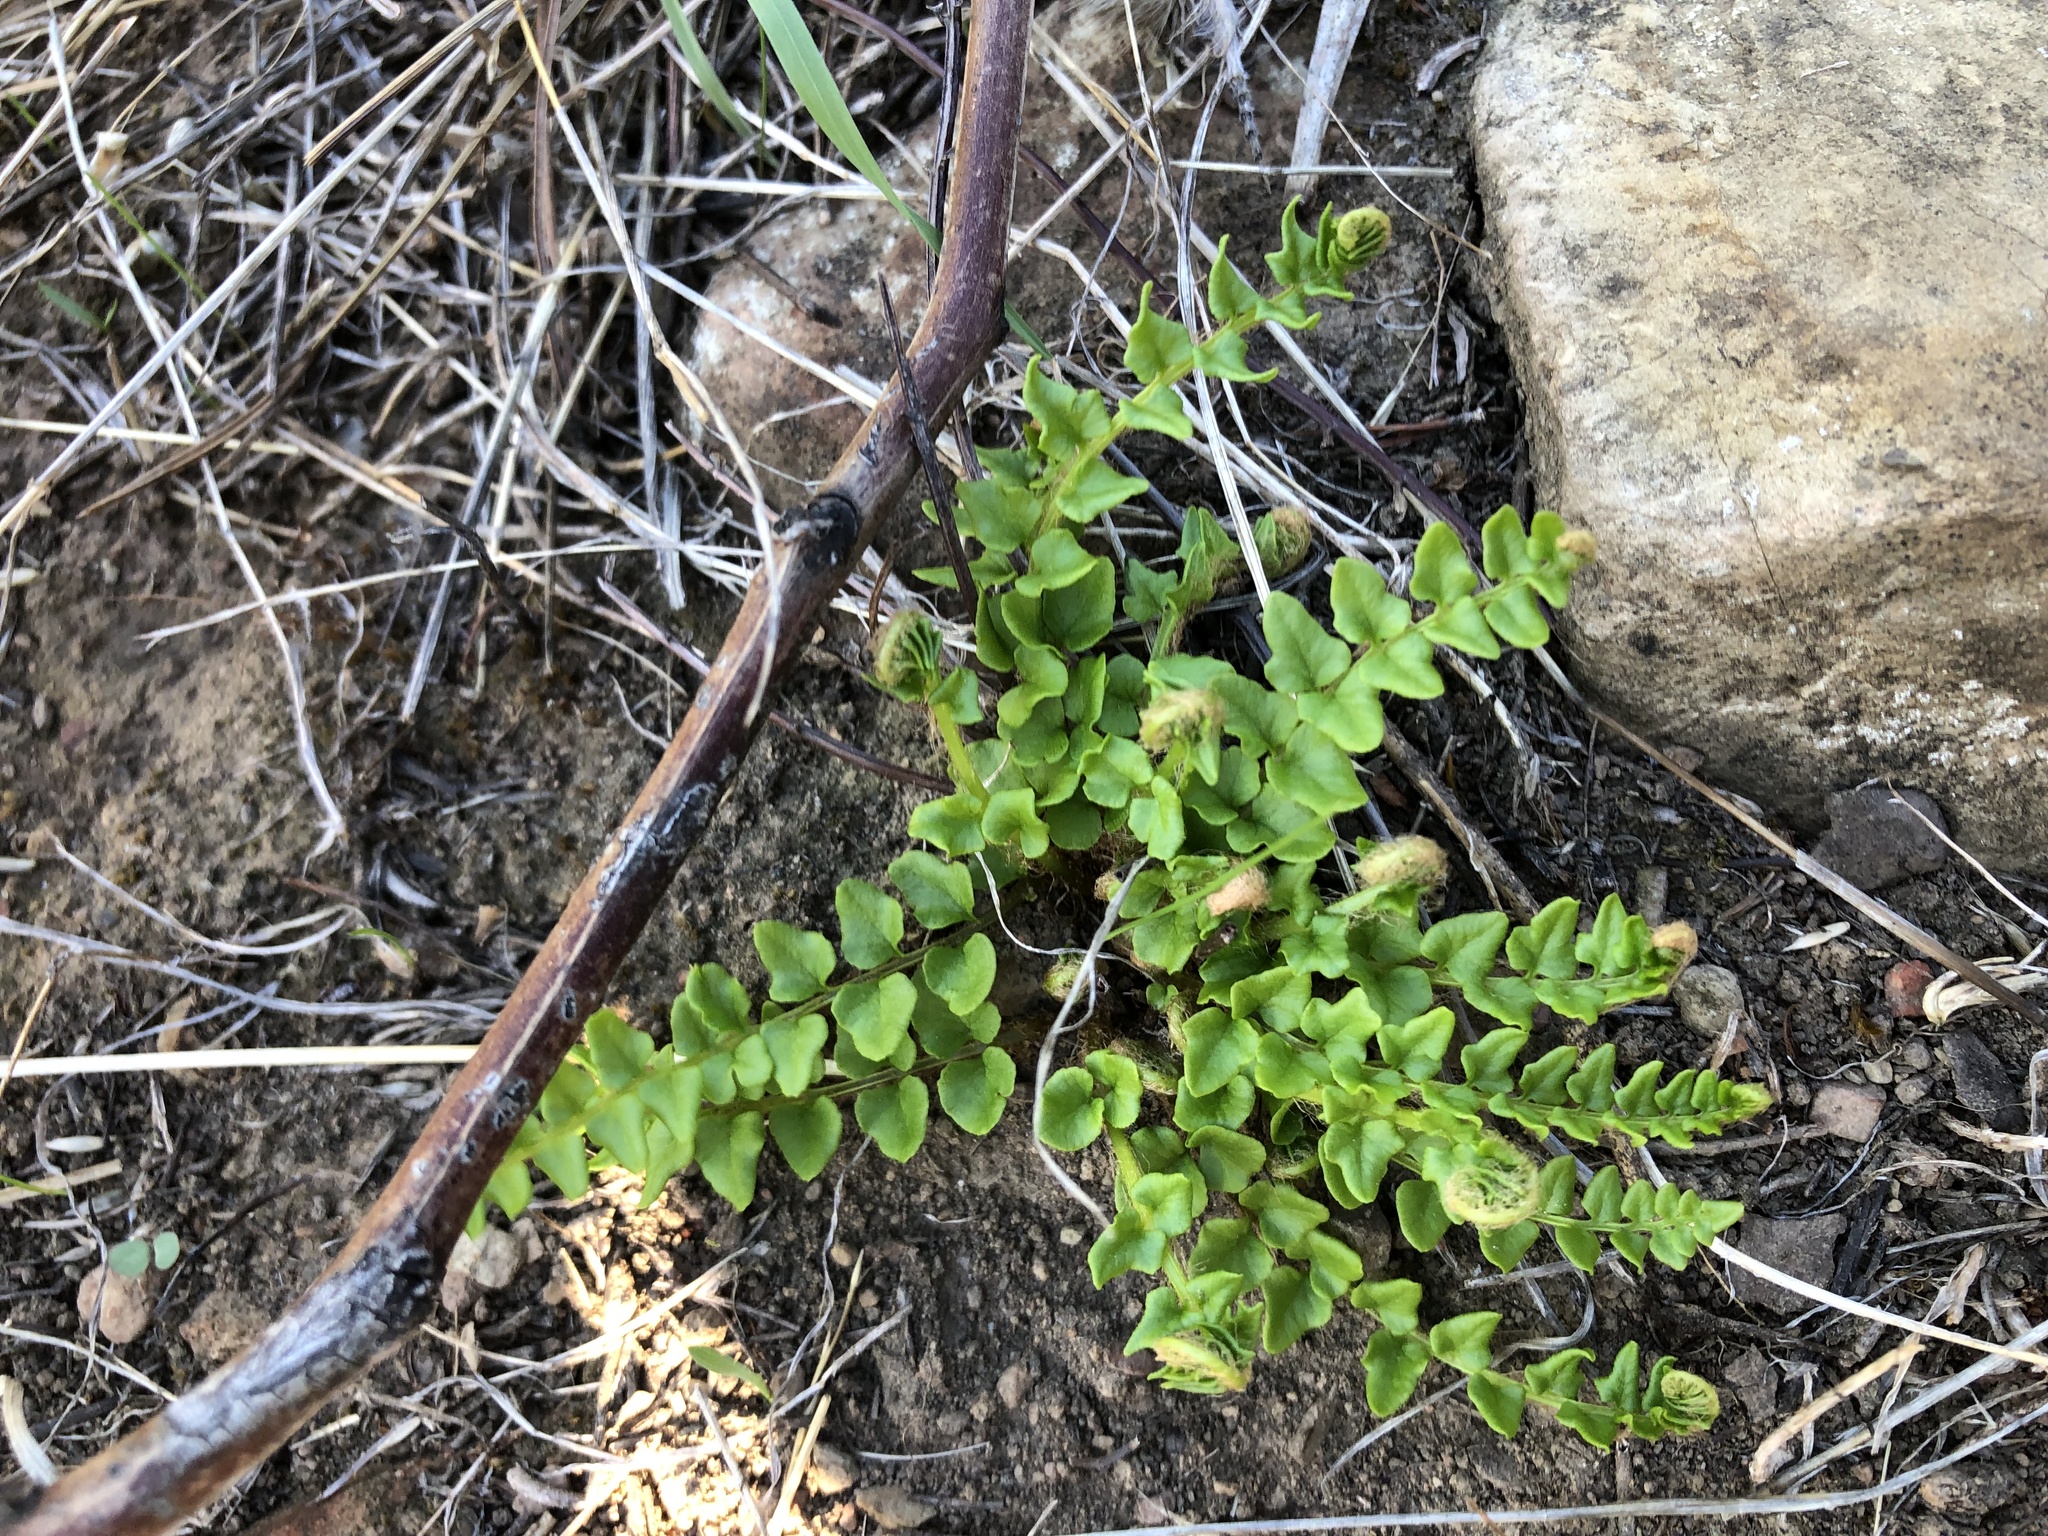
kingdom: Plantae
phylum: Tracheophyta
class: Polypodiopsida
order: Polypodiales
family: Pteridaceae
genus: Cheilanthes
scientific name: Cheilanthes hastata
